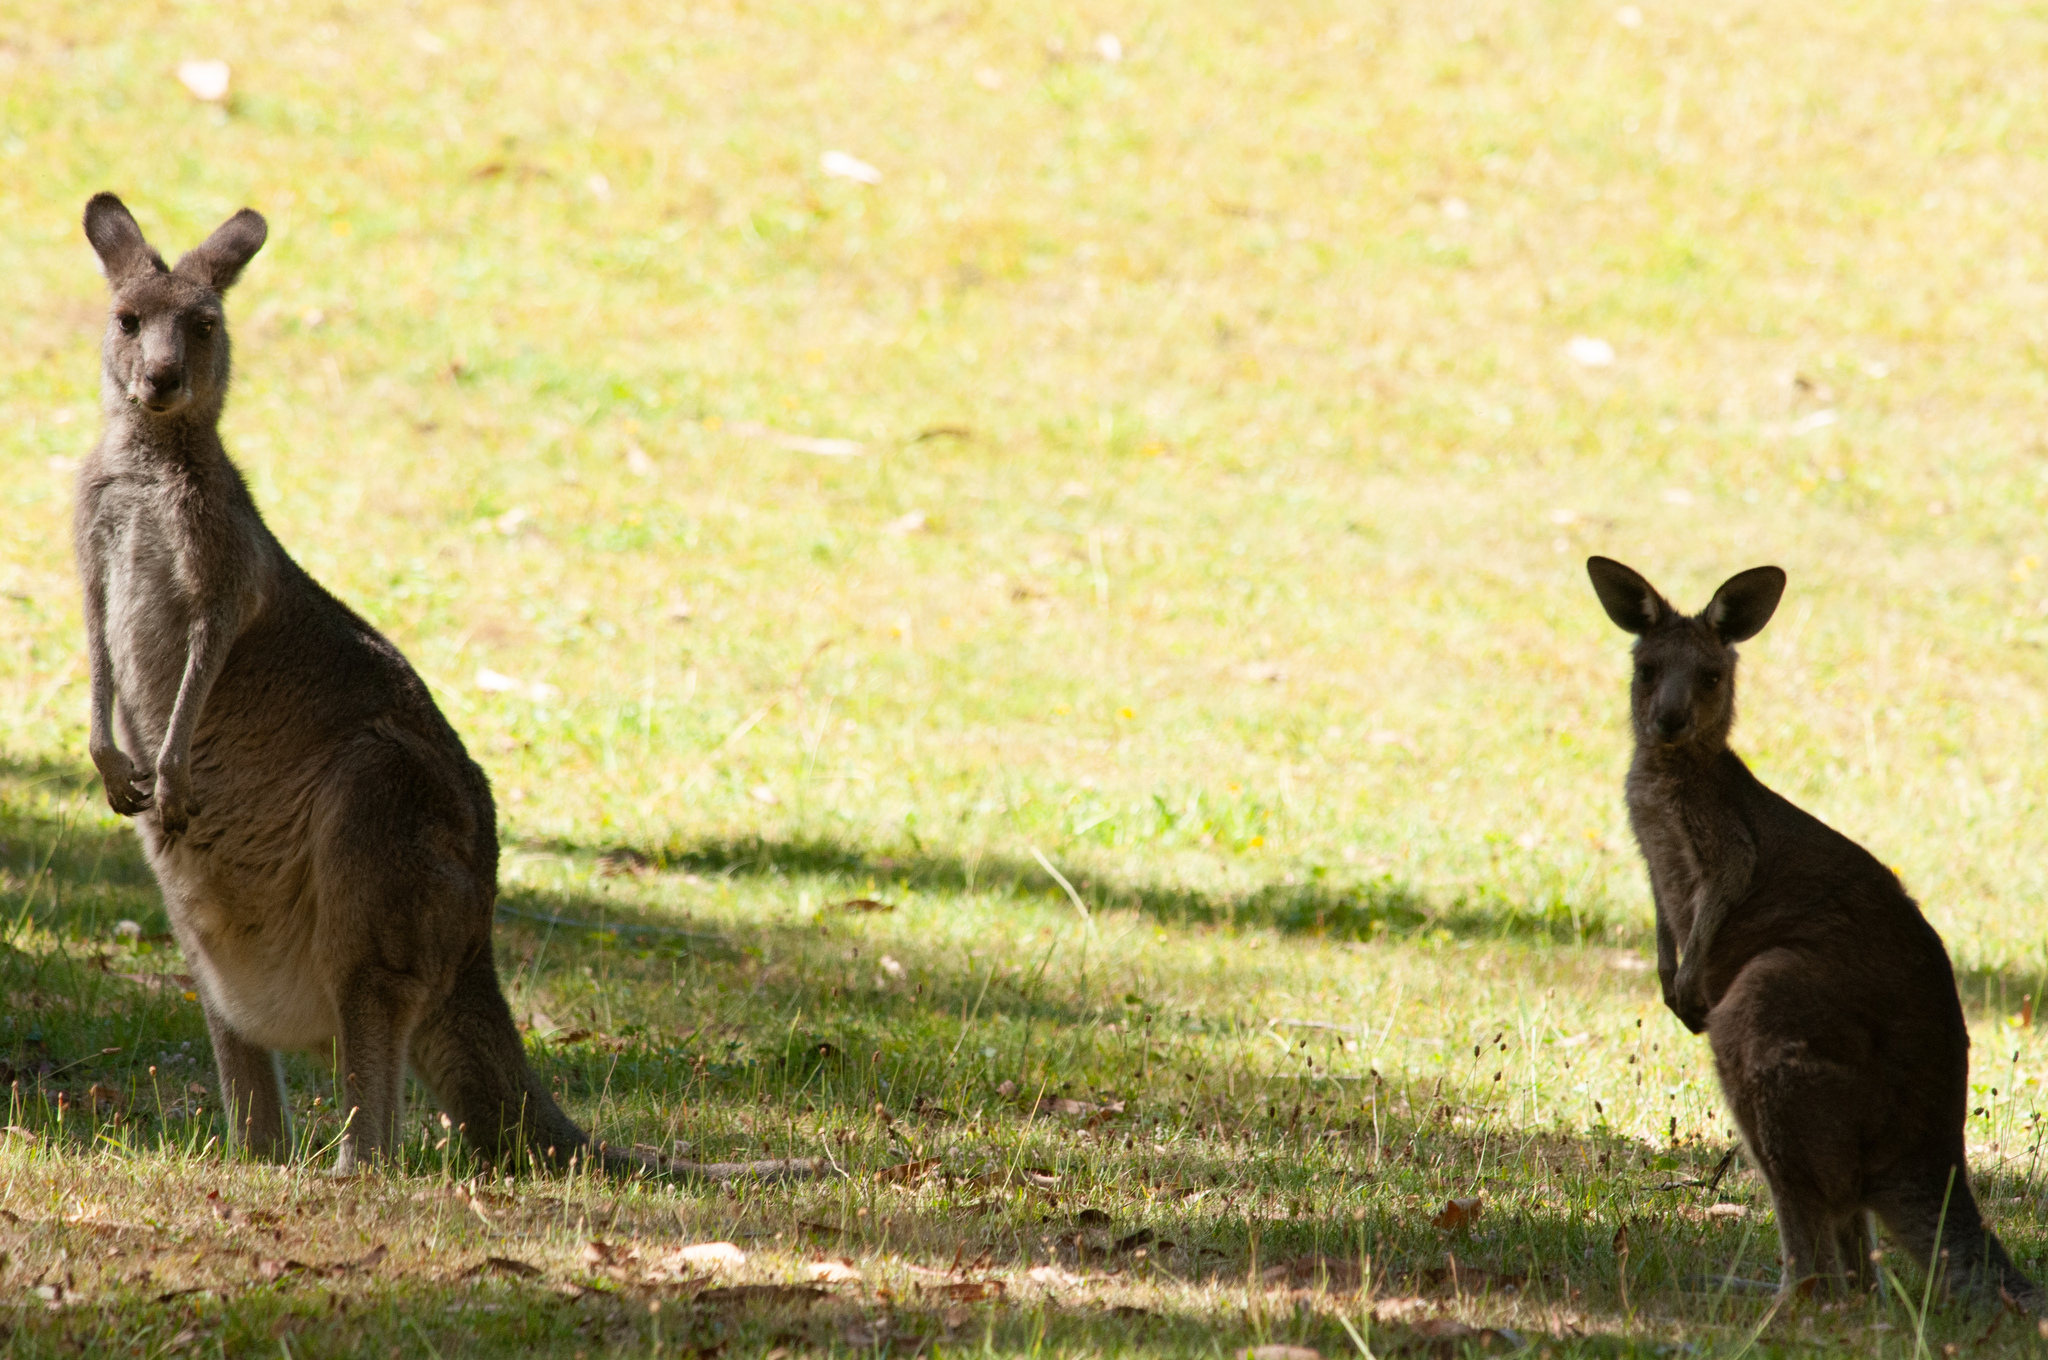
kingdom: Animalia
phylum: Chordata
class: Mammalia
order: Diprotodontia
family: Macropodidae
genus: Macropus
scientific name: Macropus giganteus
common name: Eastern grey kangaroo
